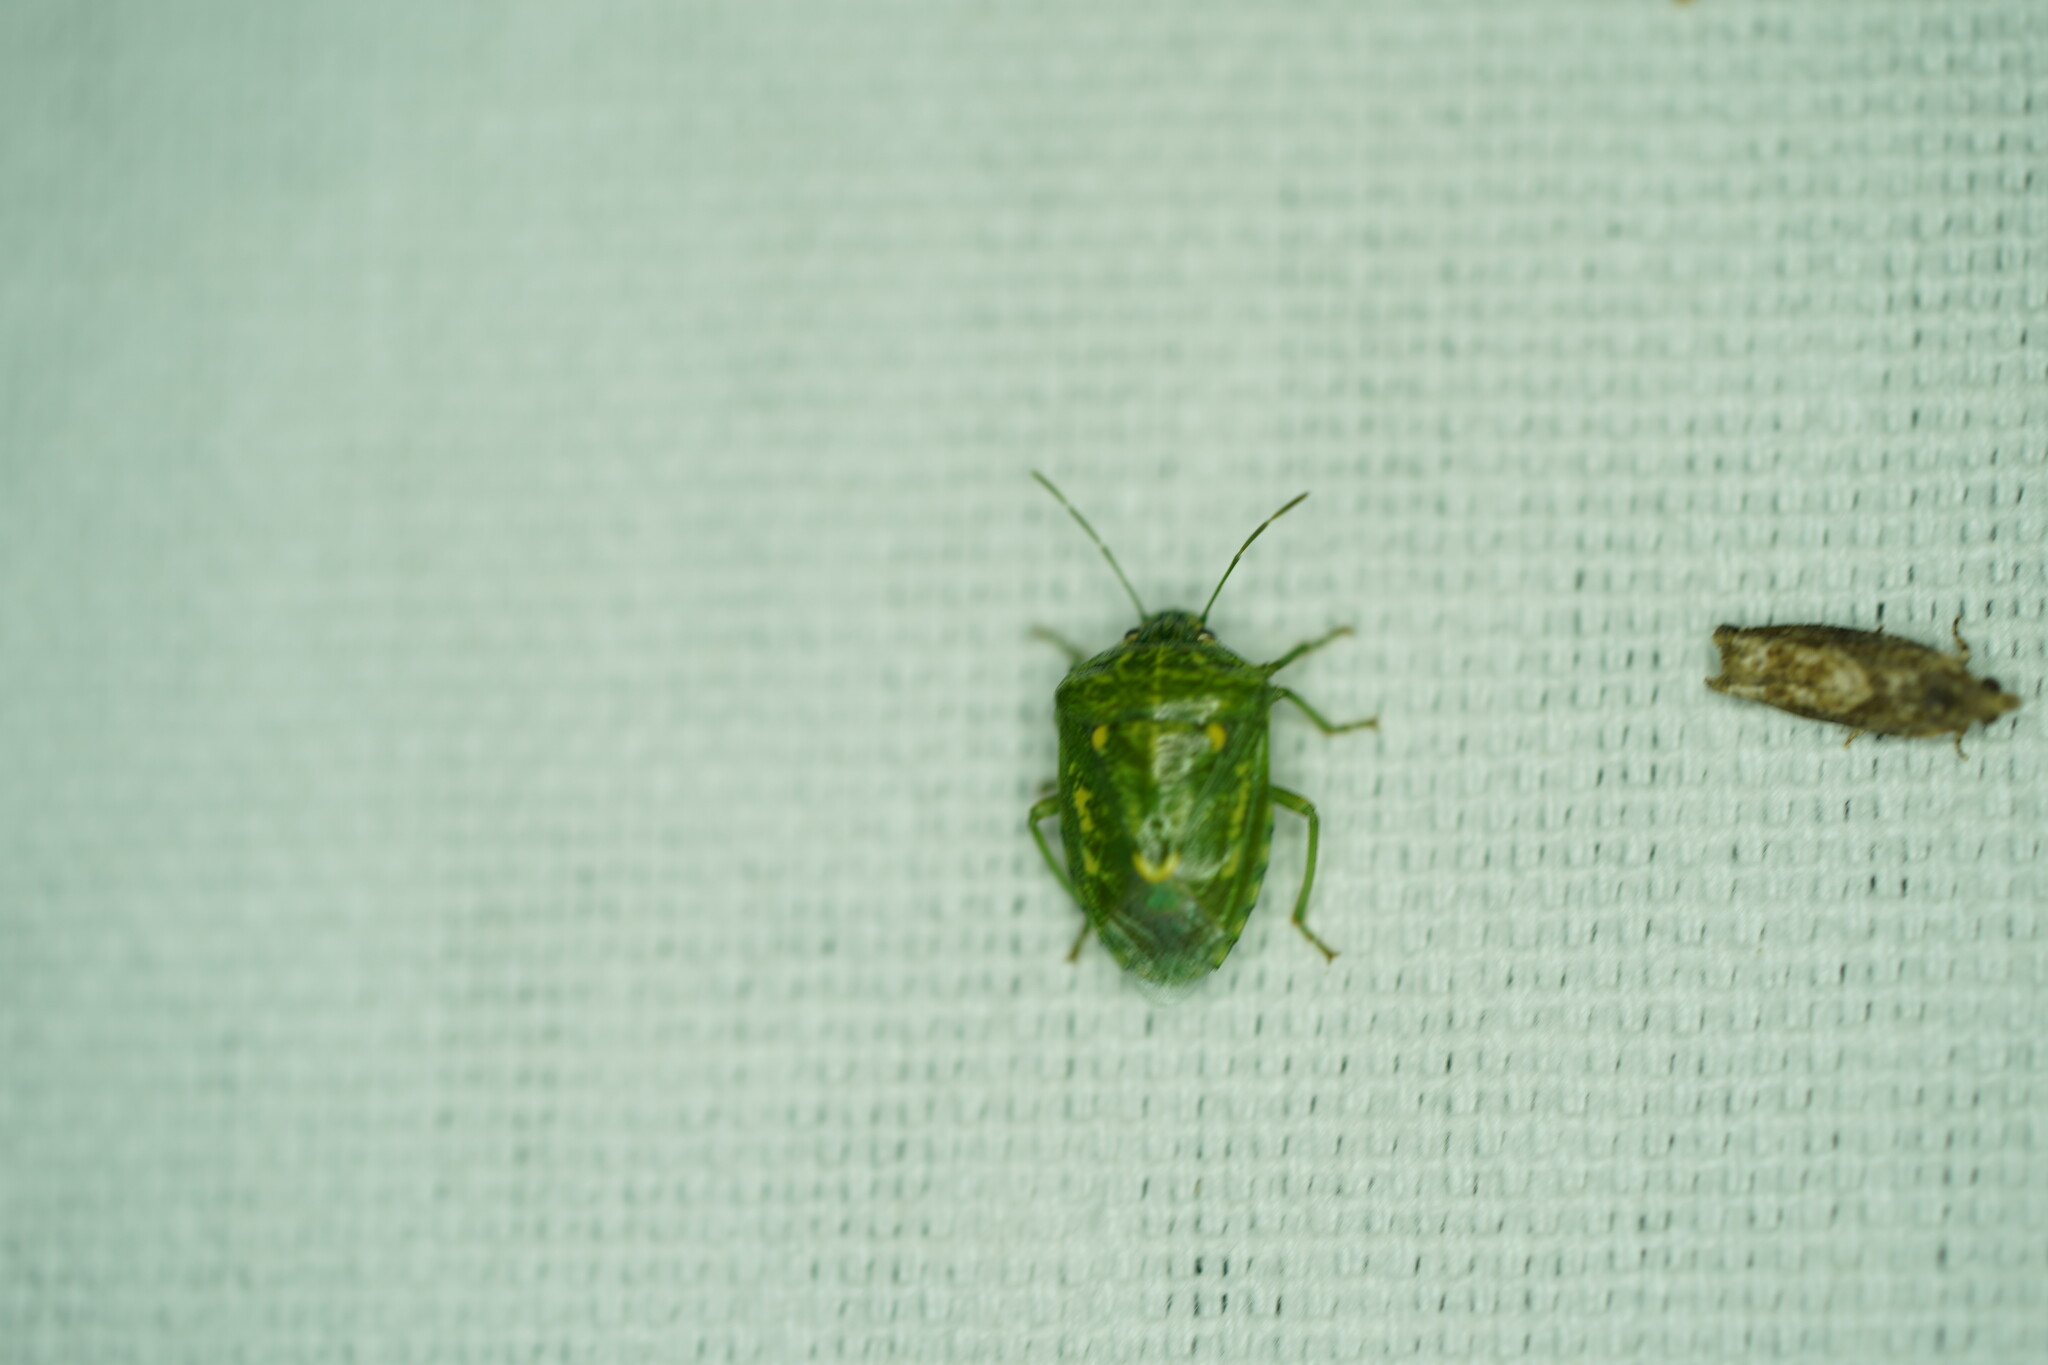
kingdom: Animalia
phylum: Arthropoda
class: Insecta
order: Hemiptera
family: Pentatomidae
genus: Banasa
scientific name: Banasa euchlora
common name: Cedar berry bug
